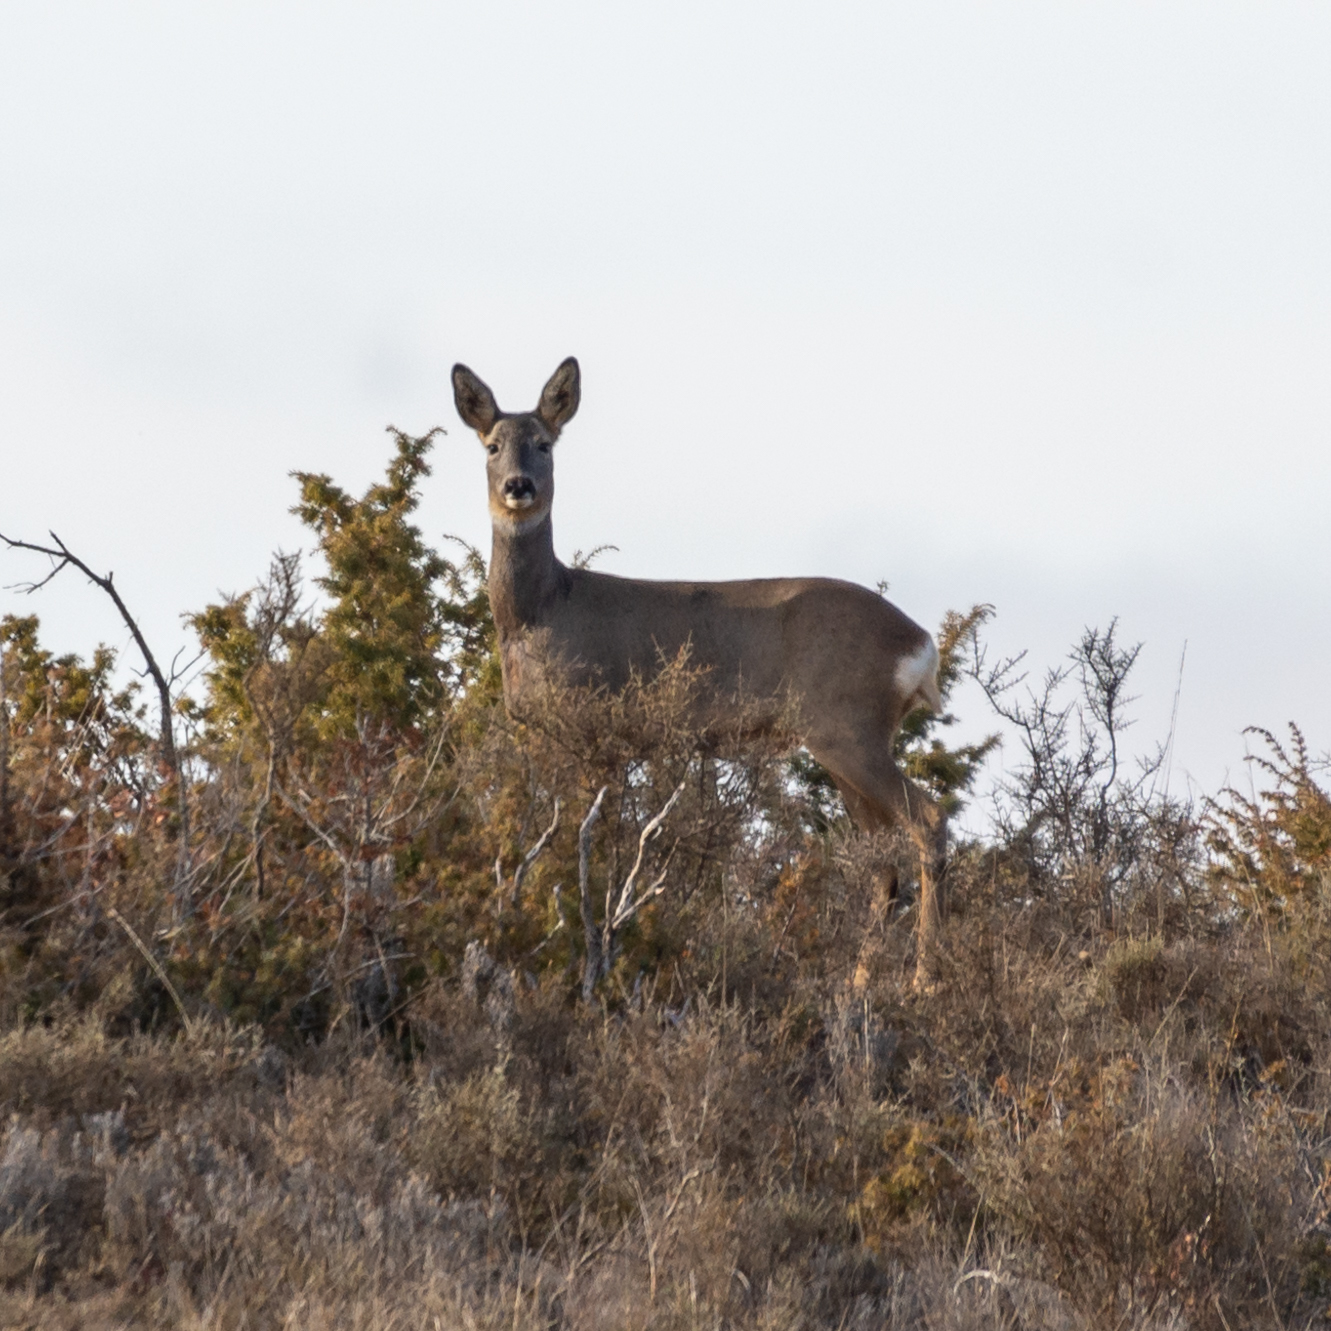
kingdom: Animalia
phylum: Chordata
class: Mammalia
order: Artiodactyla
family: Cervidae
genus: Capreolus
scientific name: Capreolus capreolus
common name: Western roe deer
